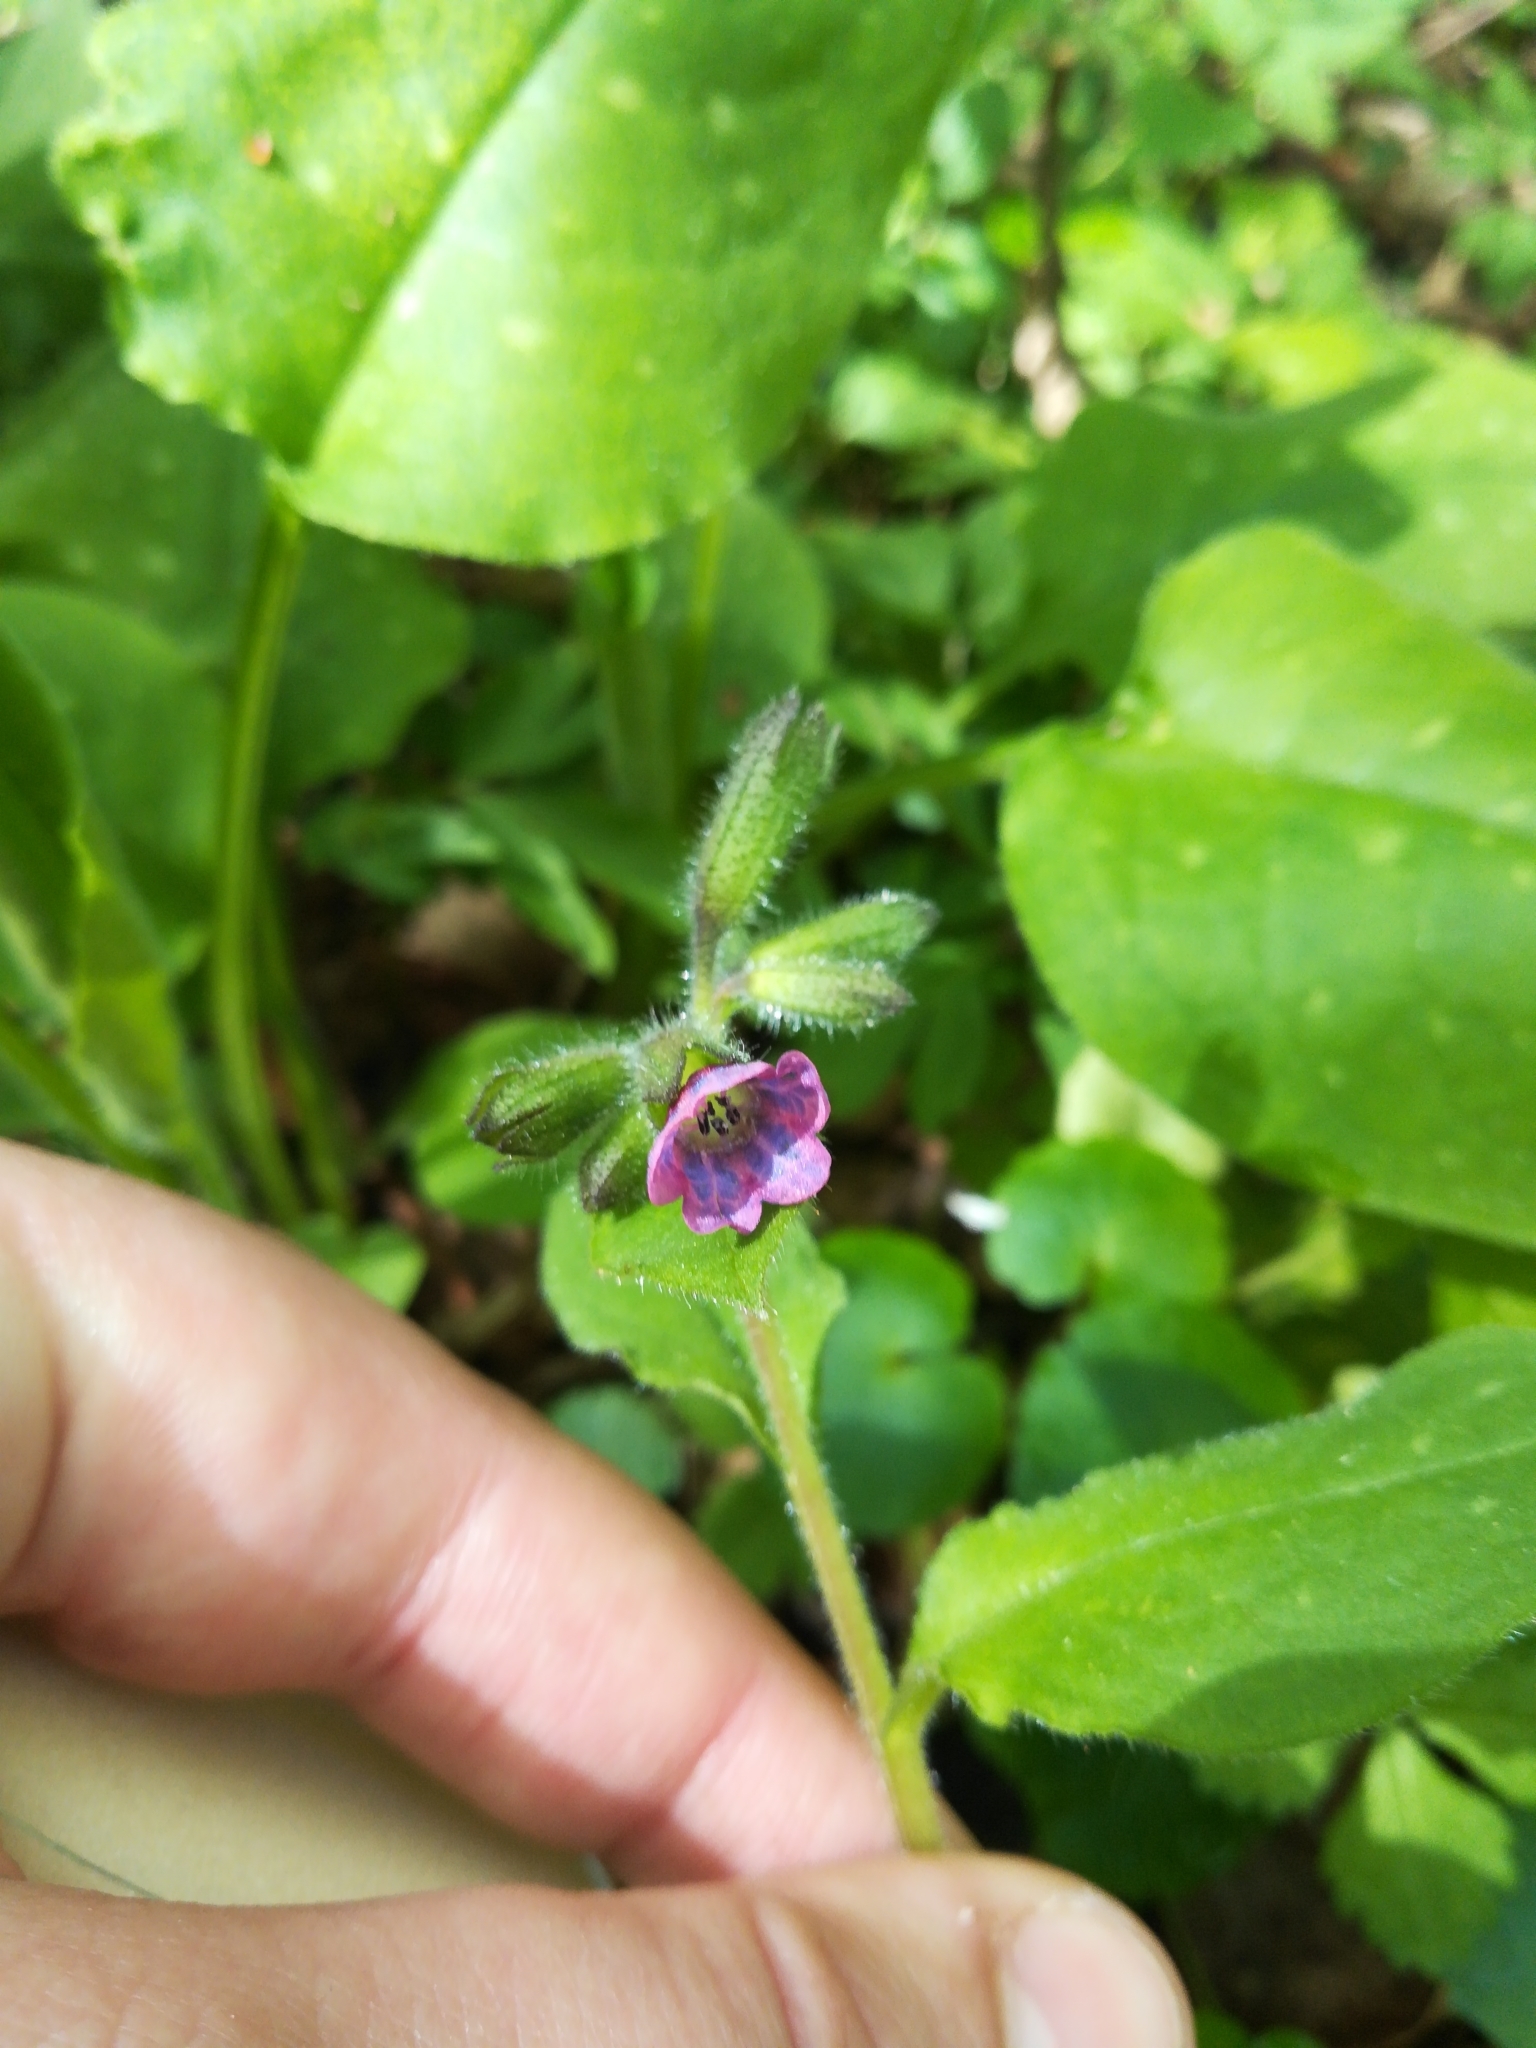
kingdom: Plantae
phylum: Tracheophyta
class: Magnoliopsida
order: Boraginales
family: Boraginaceae
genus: Pulmonaria
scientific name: Pulmonaria officinalis
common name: Lungwort
